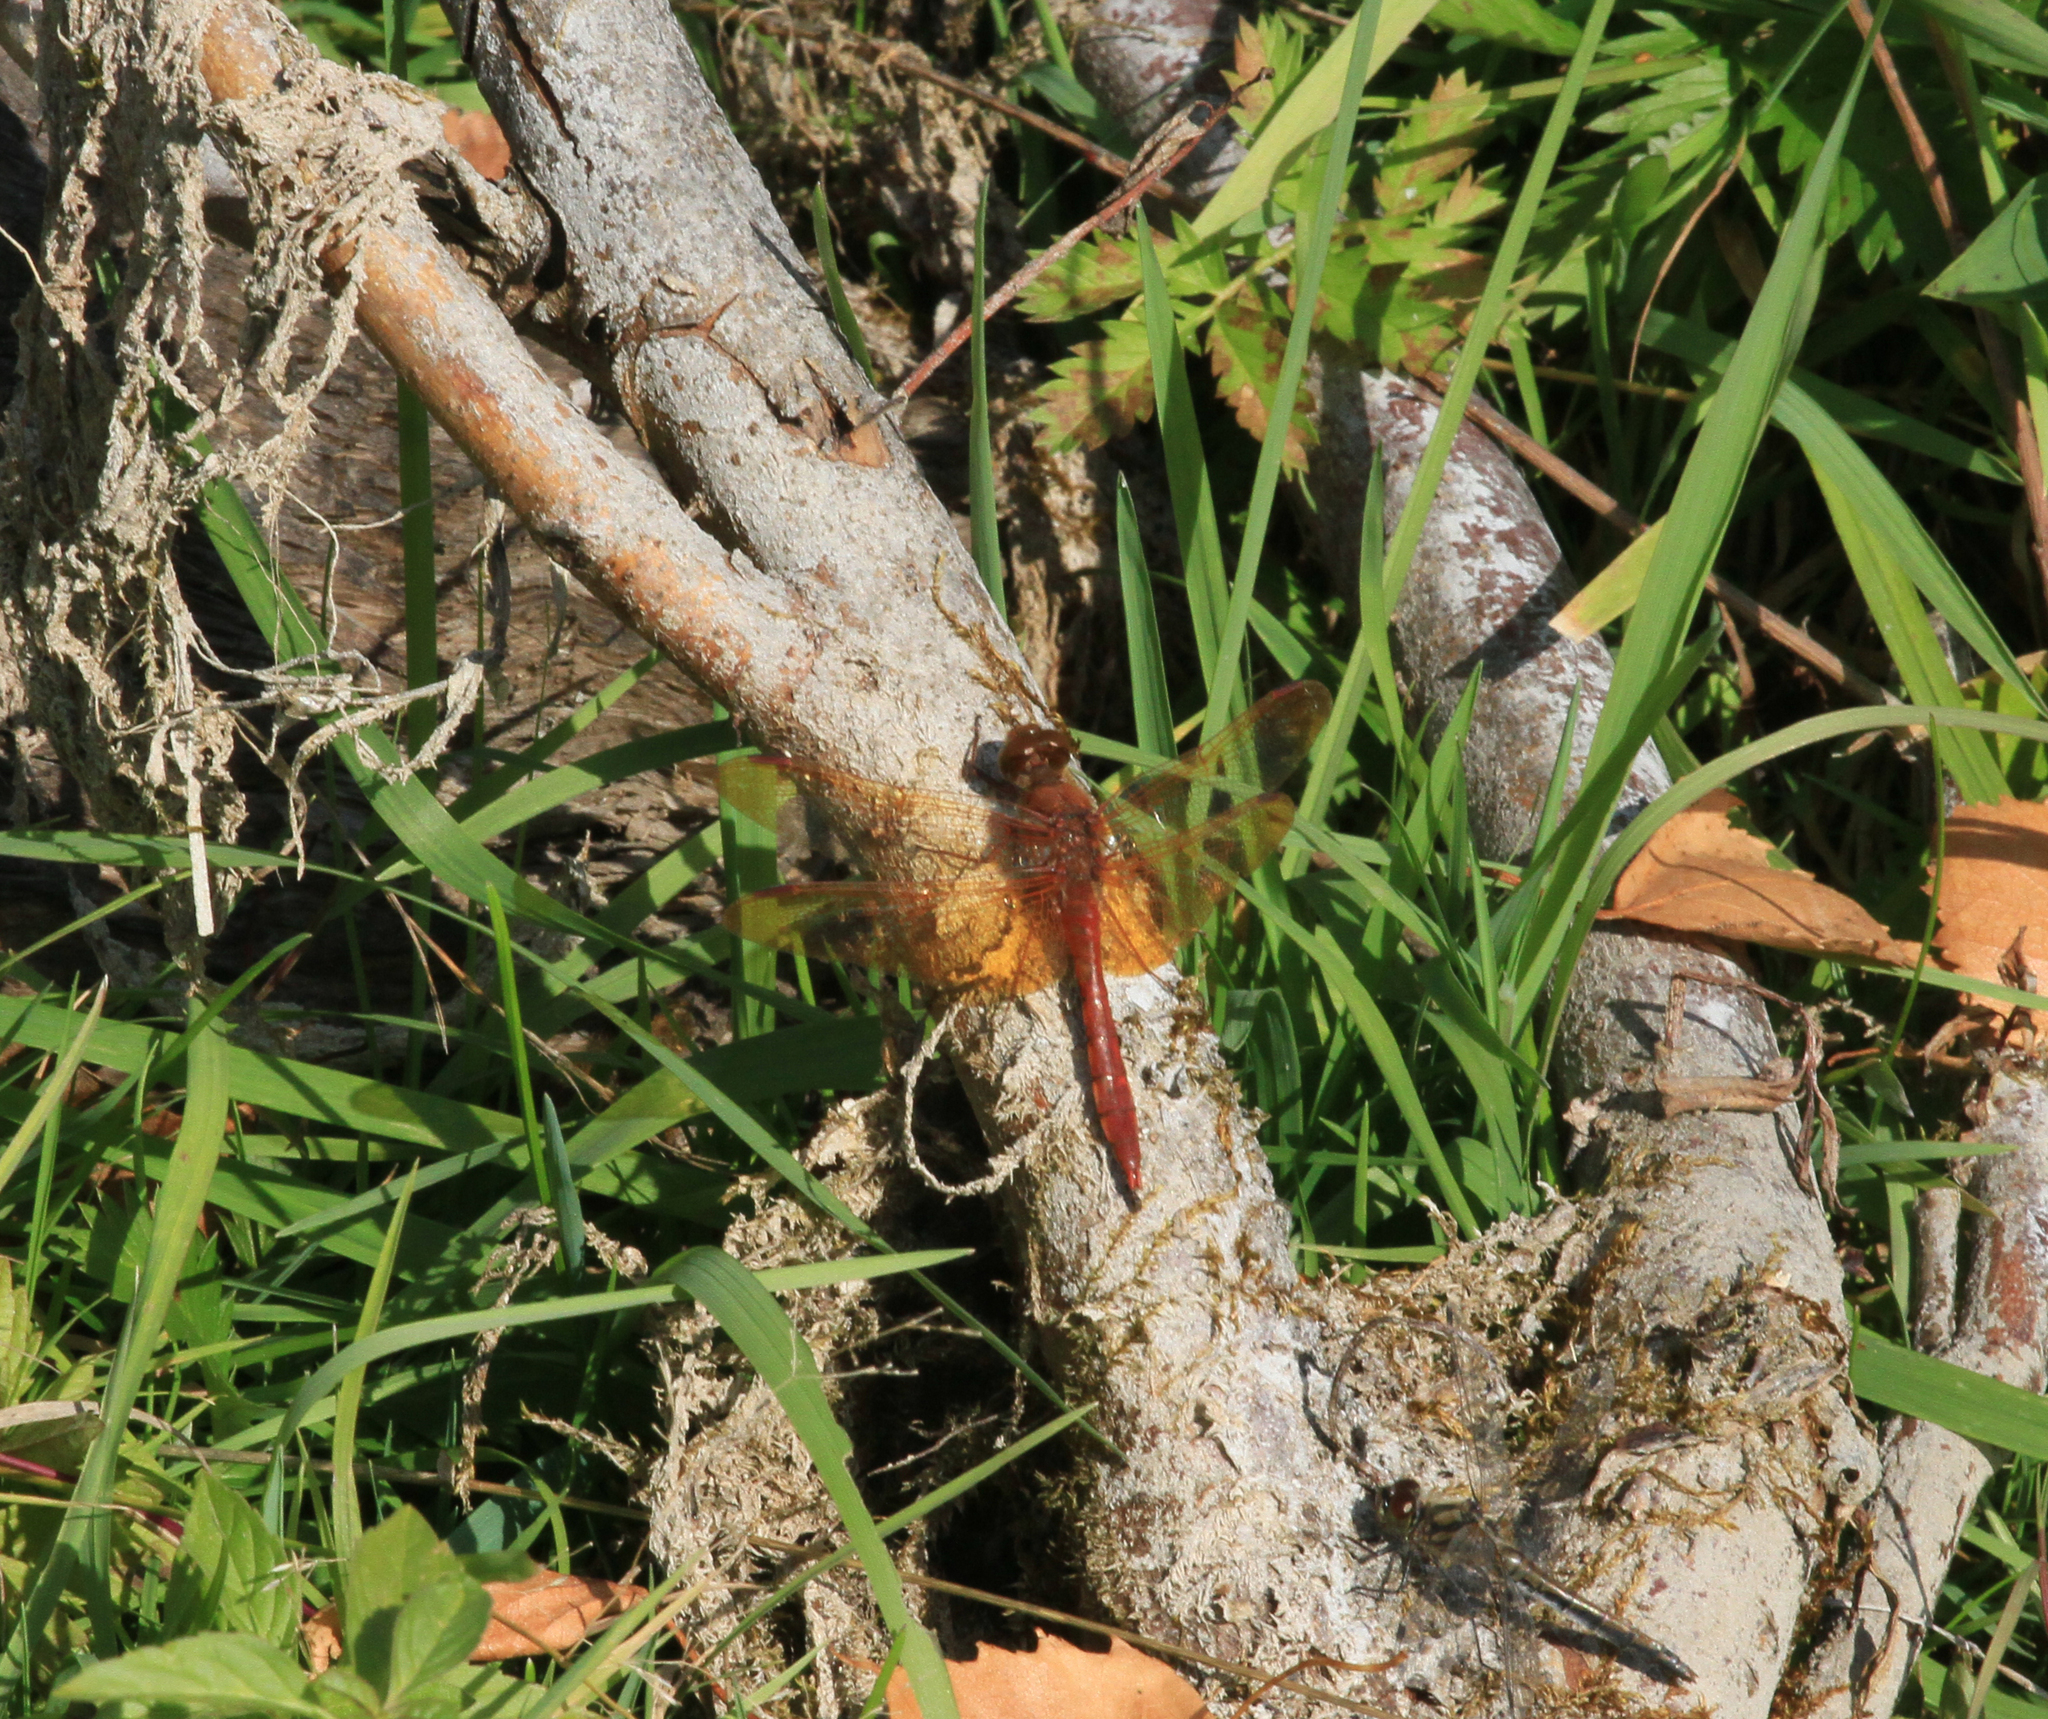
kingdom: Animalia
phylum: Arthropoda
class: Insecta
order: Odonata
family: Libellulidae
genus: Sympetrum
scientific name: Sympetrum croceolum
